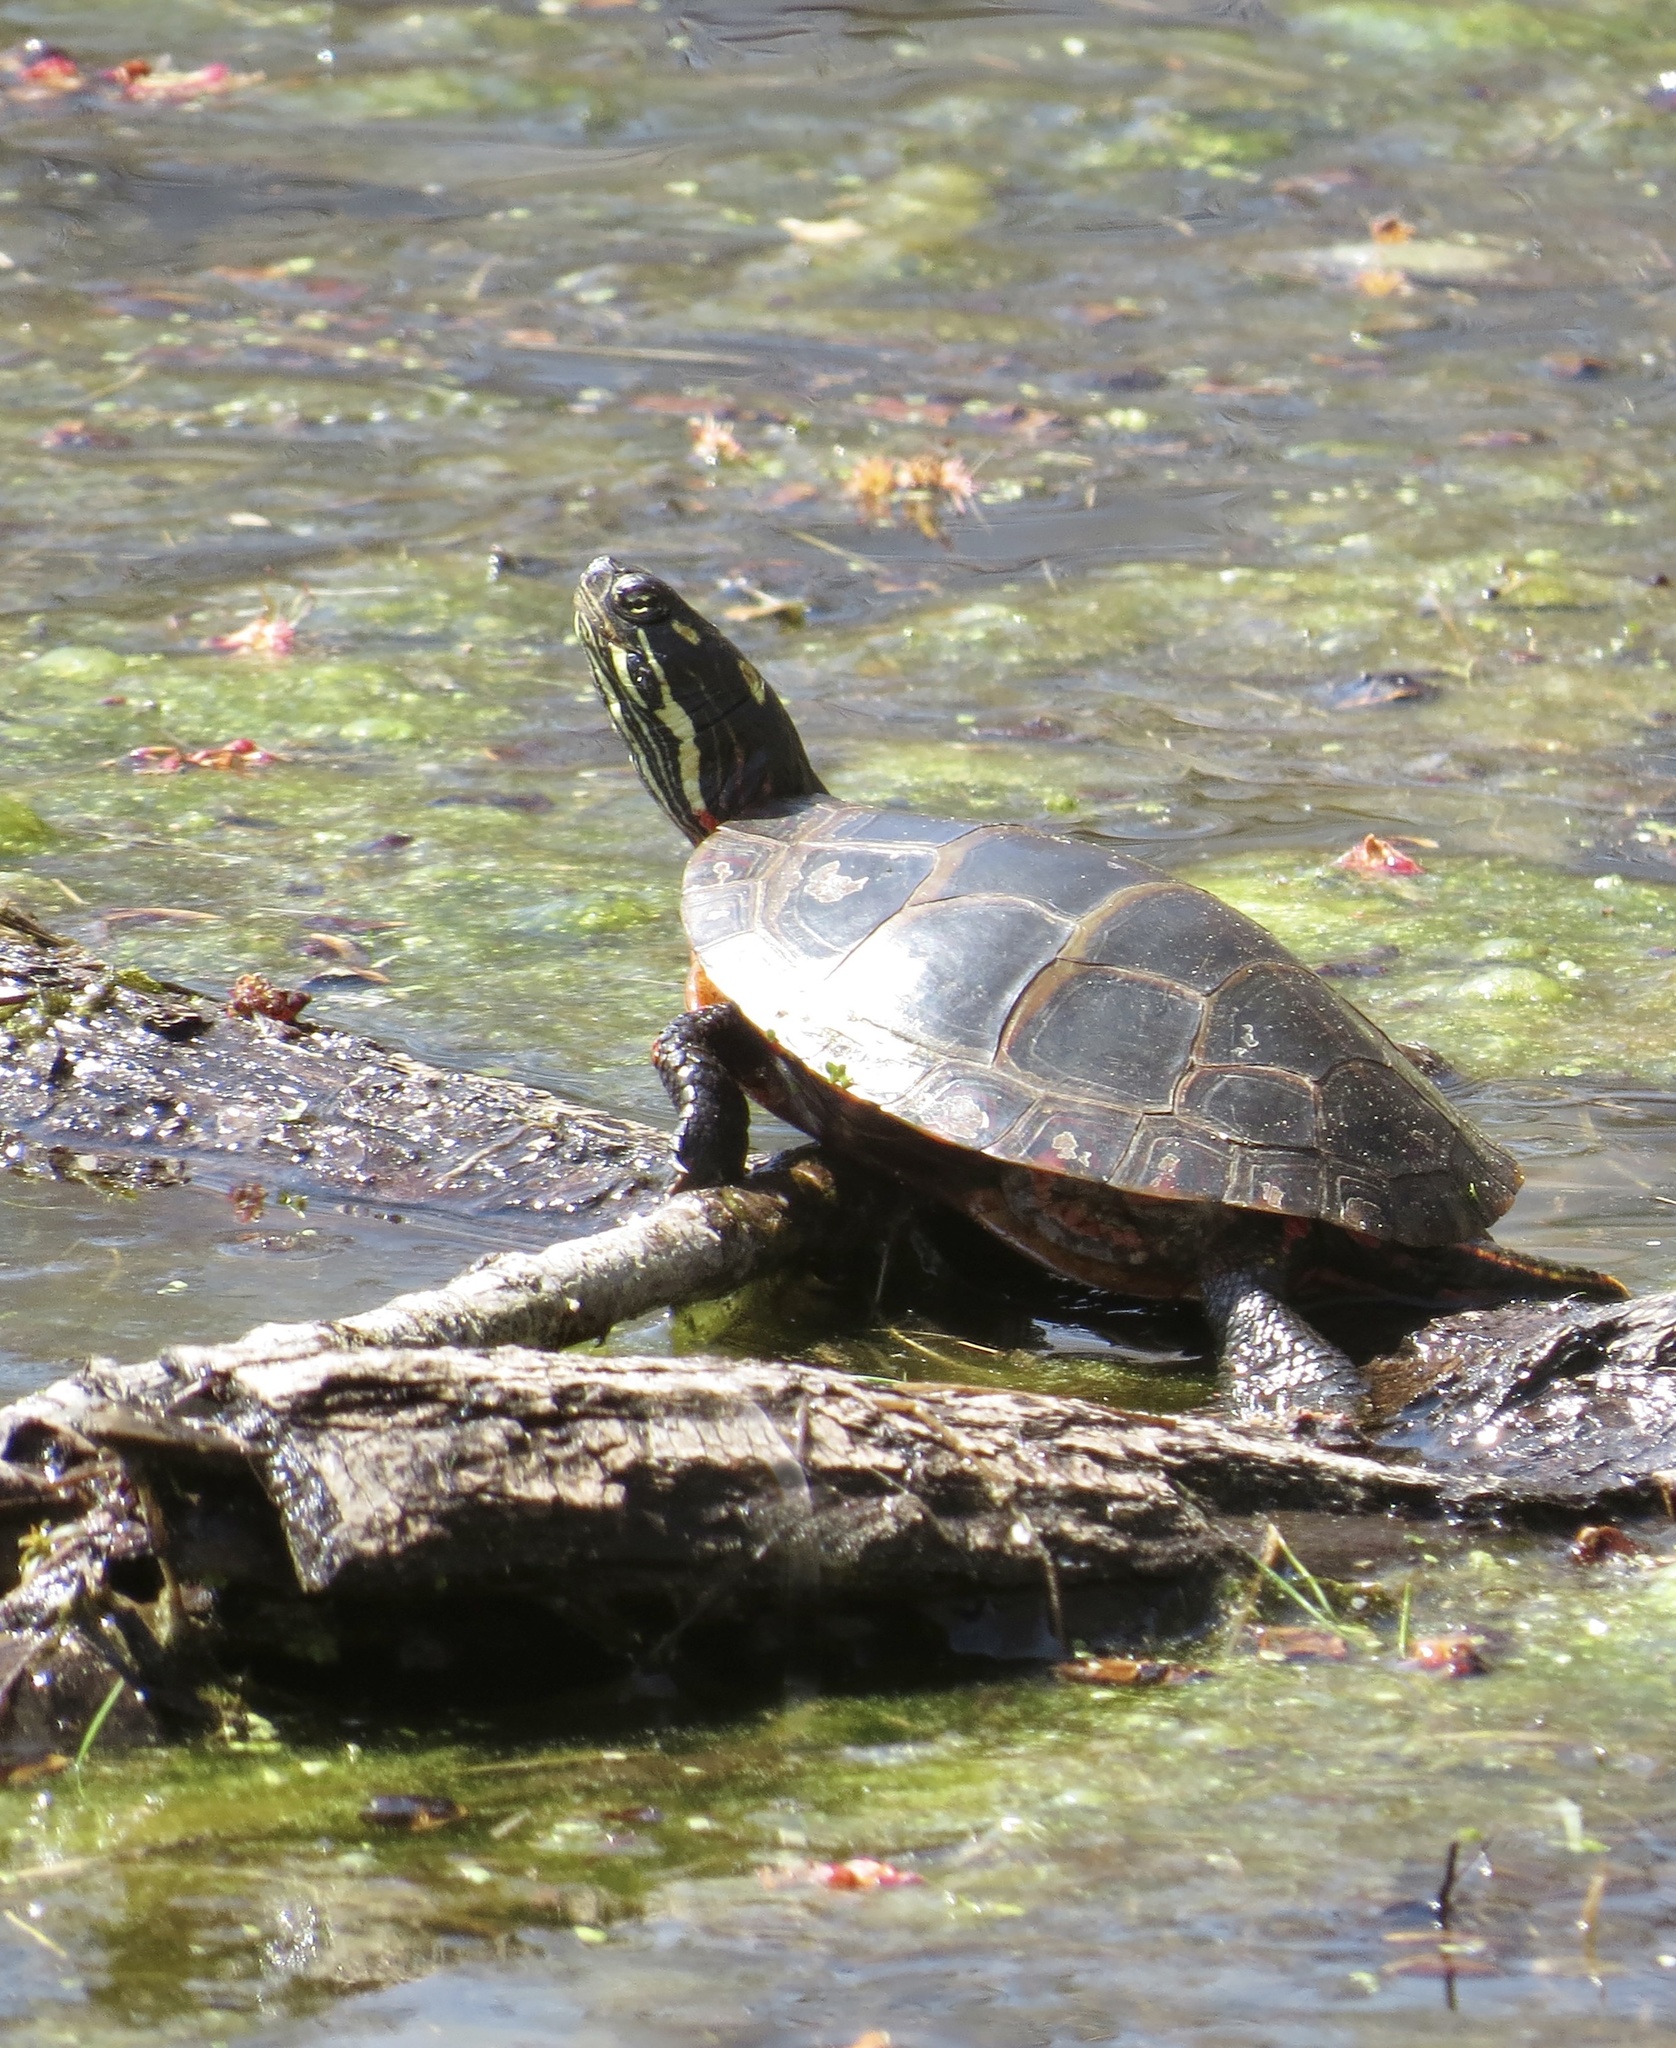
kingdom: Animalia
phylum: Chordata
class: Testudines
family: Emydidae
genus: Chrysemys
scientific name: Chrysemys picta
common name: Painted turtle
